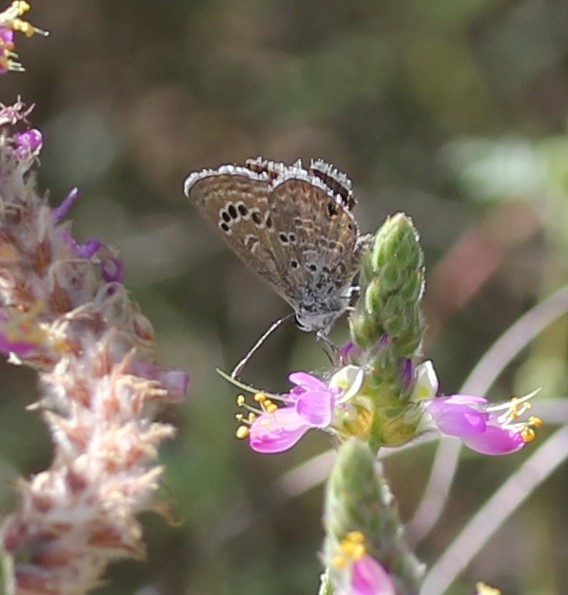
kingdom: Animalia
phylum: Arthropoda
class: Insecta
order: Lepidoptera
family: Lycaenidae
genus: Echinargus
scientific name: Echinargus isola
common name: Reakirt's blue
